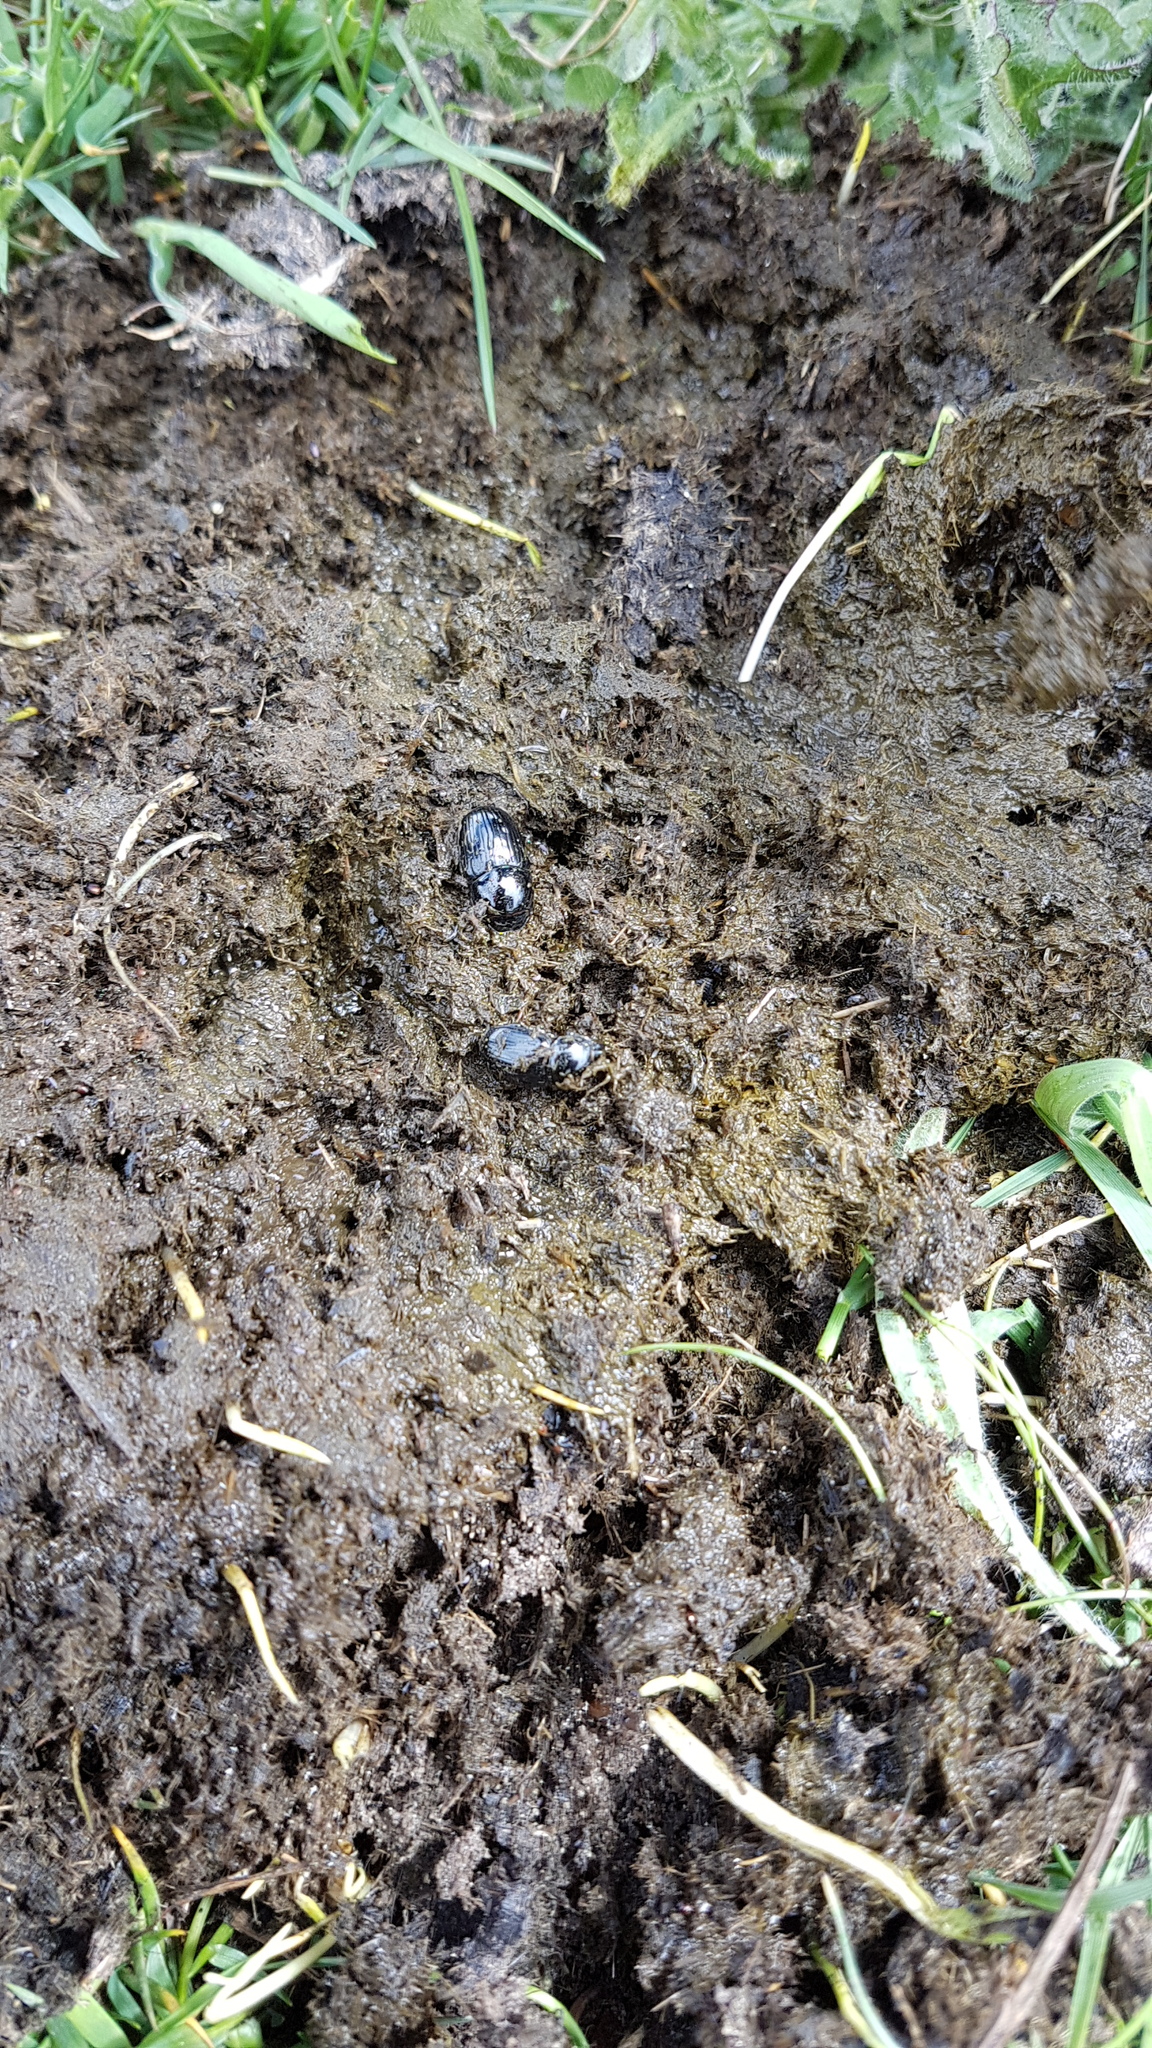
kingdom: Animalia
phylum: Arthropoda
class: Insecta
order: Coleoptera
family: Scarabaeidae
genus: Teuchestes
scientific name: Teuchestes fossor
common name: Digger small dung beetle
